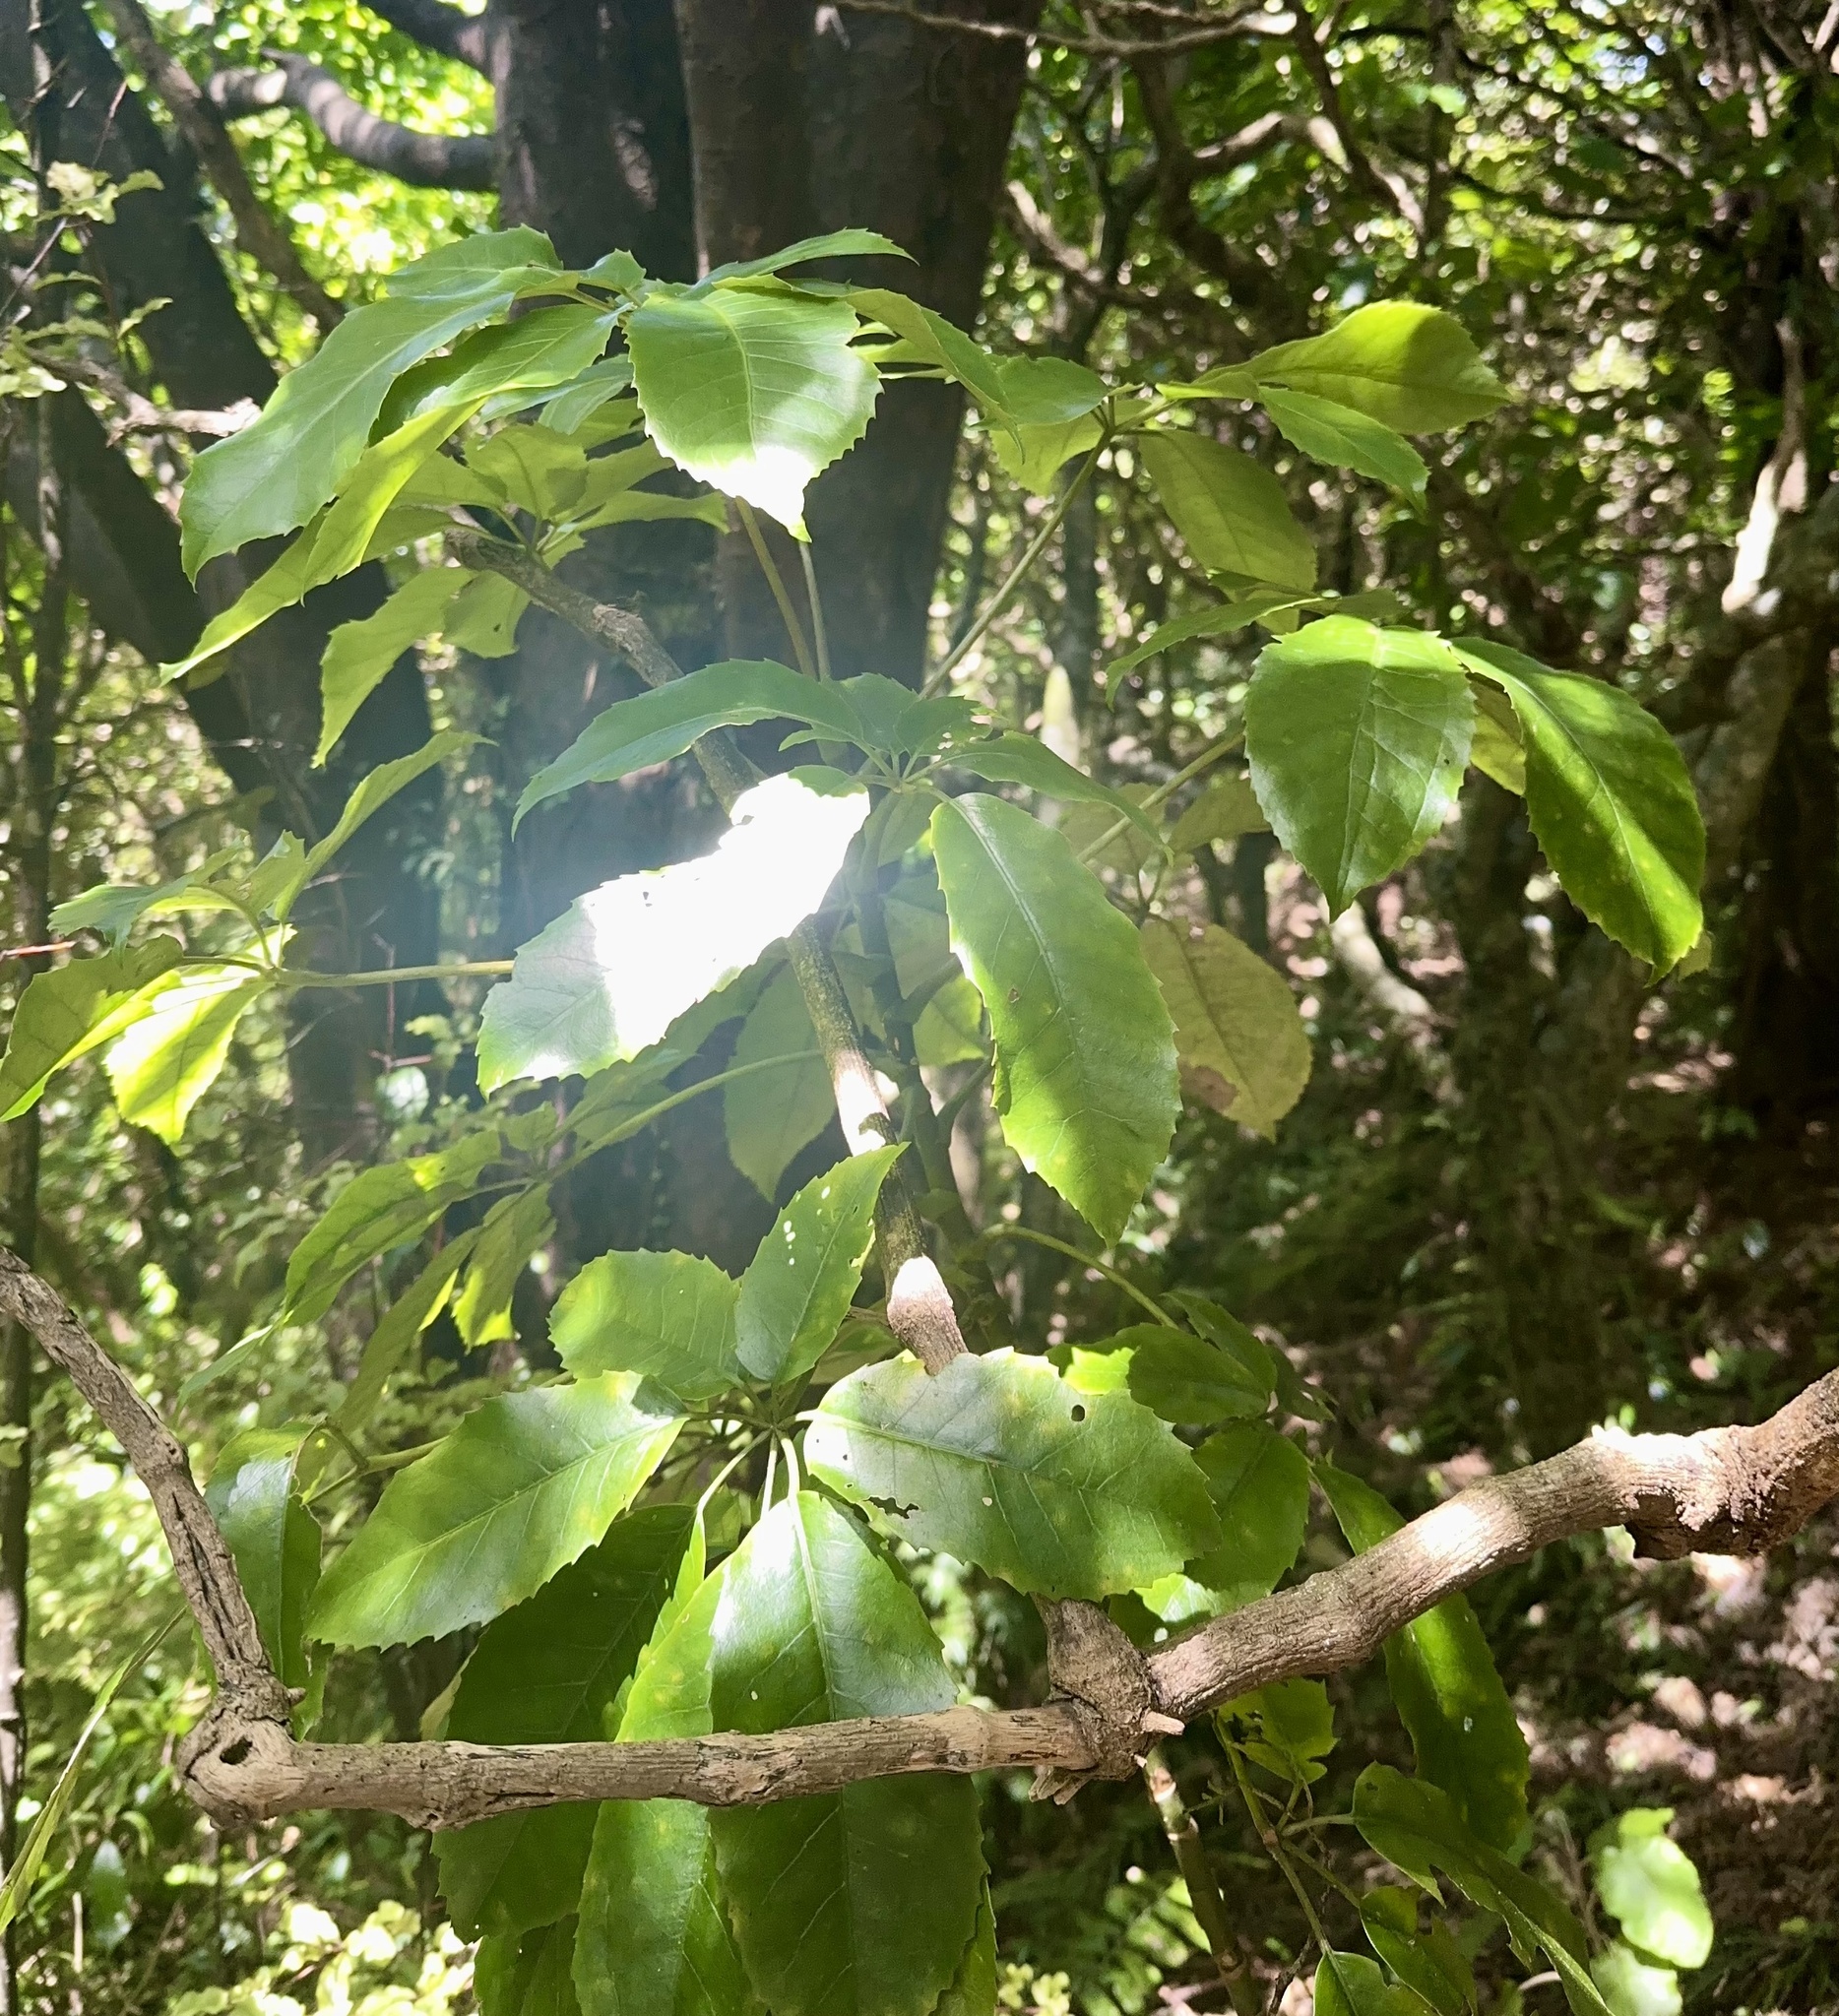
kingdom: Plantae
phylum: Tracheophyta
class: Magnoliopsida
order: Apiales
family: Araliaceae
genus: Neopanax
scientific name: Neopanax arboreus
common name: Five-fingers
